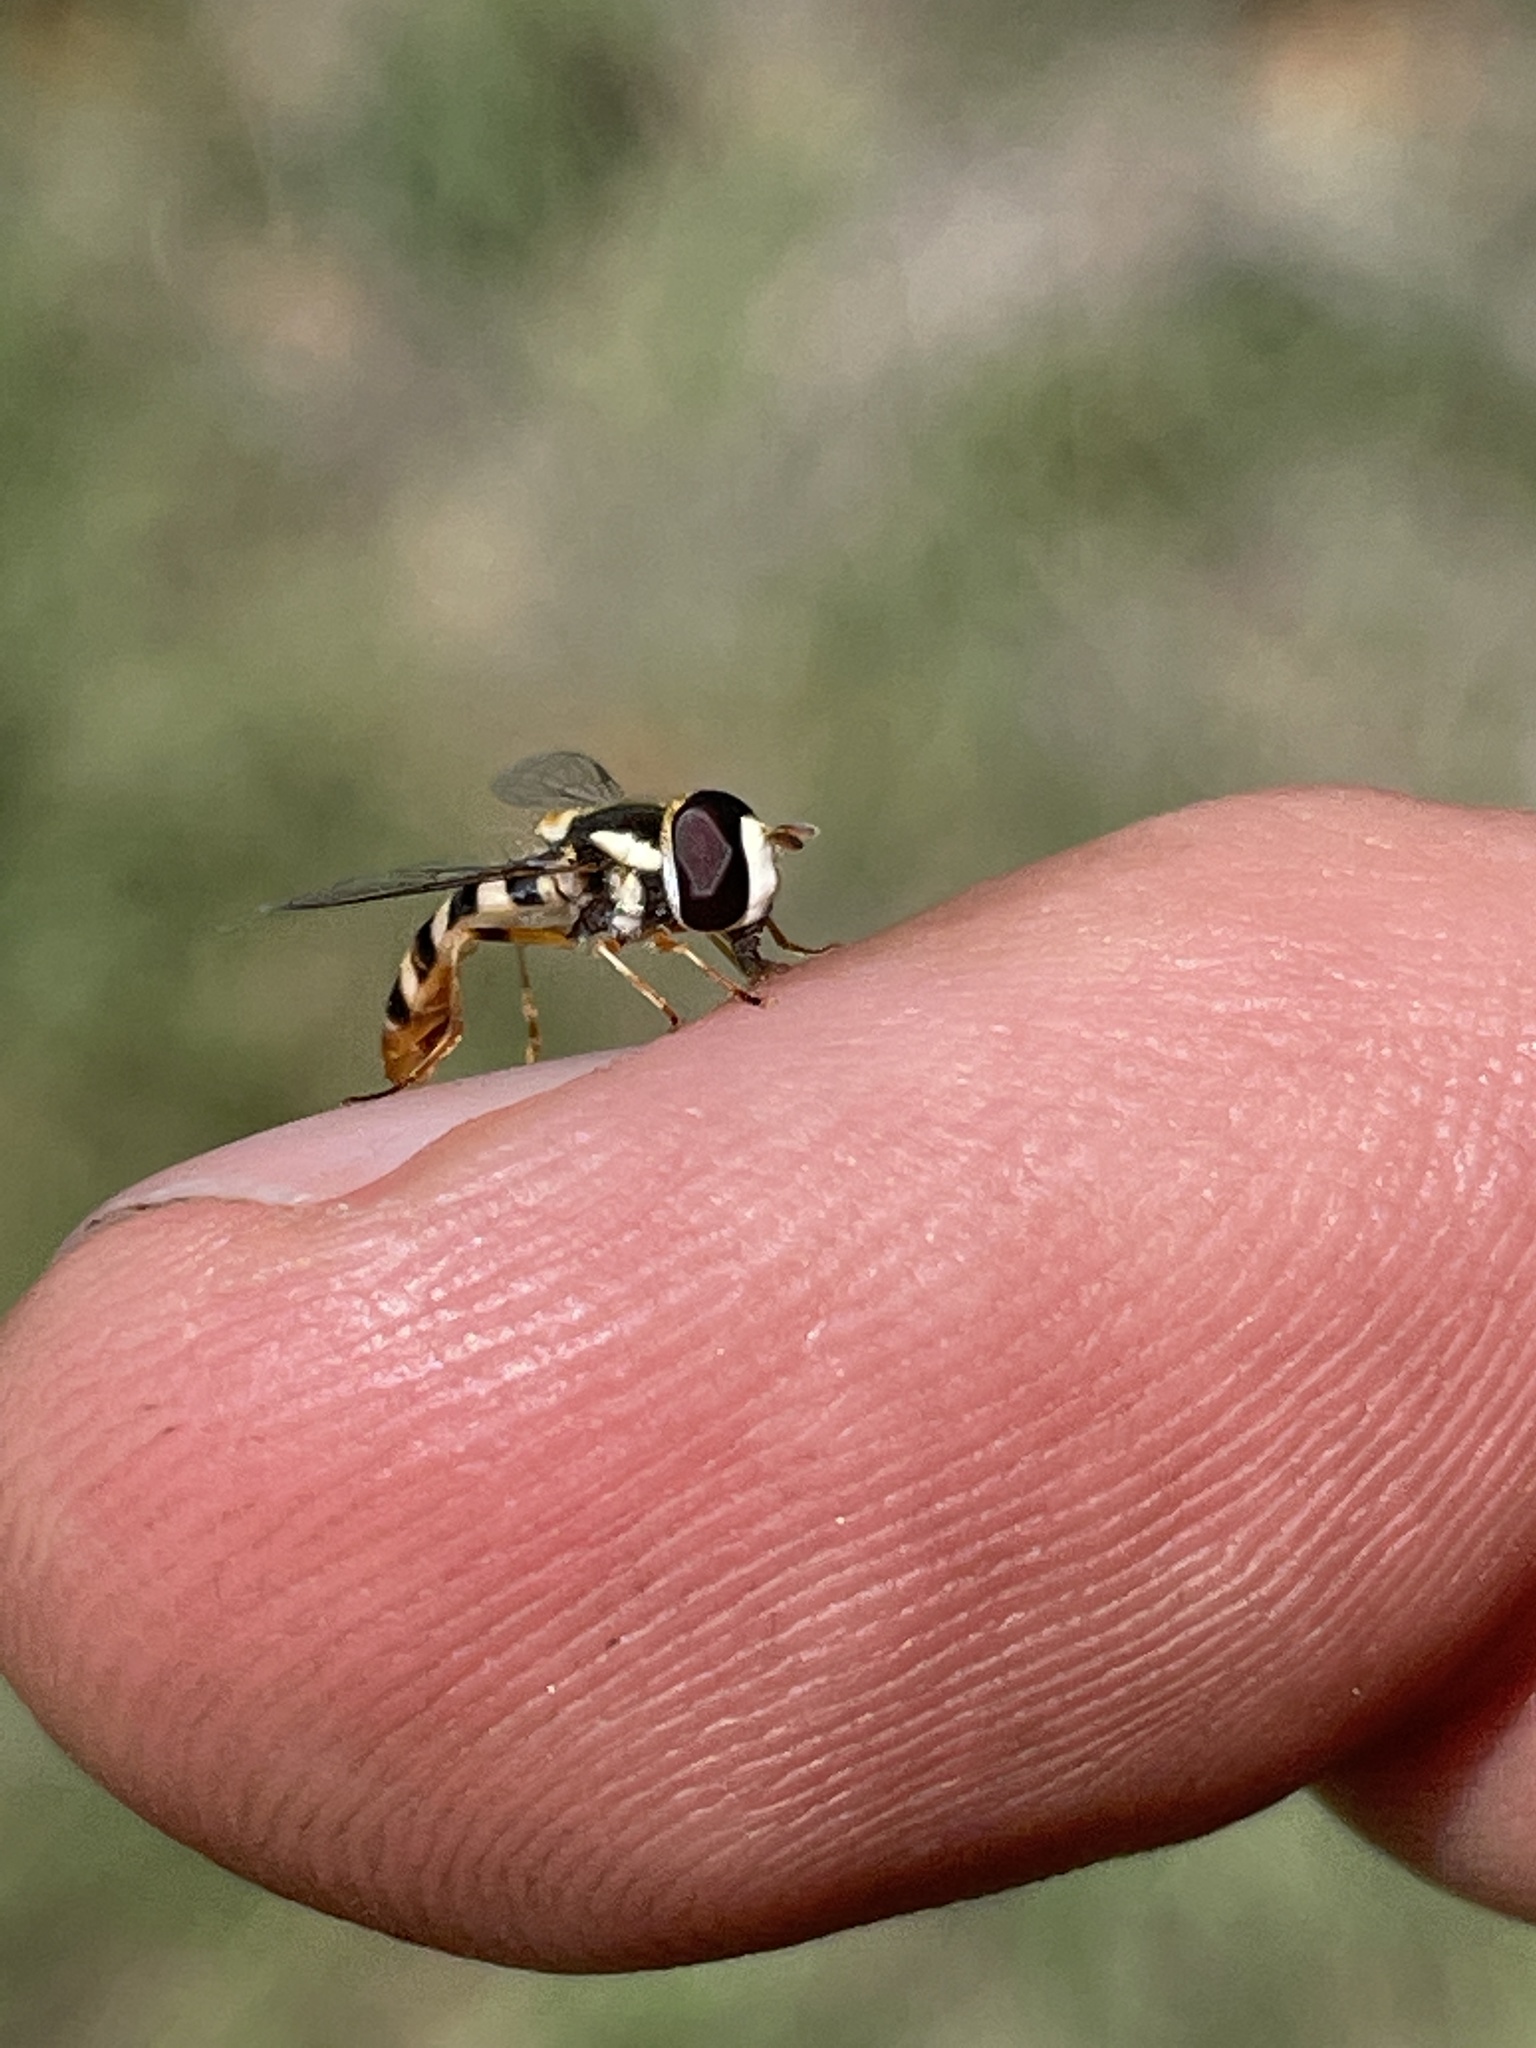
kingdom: Animalia
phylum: Arthropoda
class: Insecta
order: Diptera
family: Syrphidae
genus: Ischiodon
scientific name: Ischiodon aegyptius
